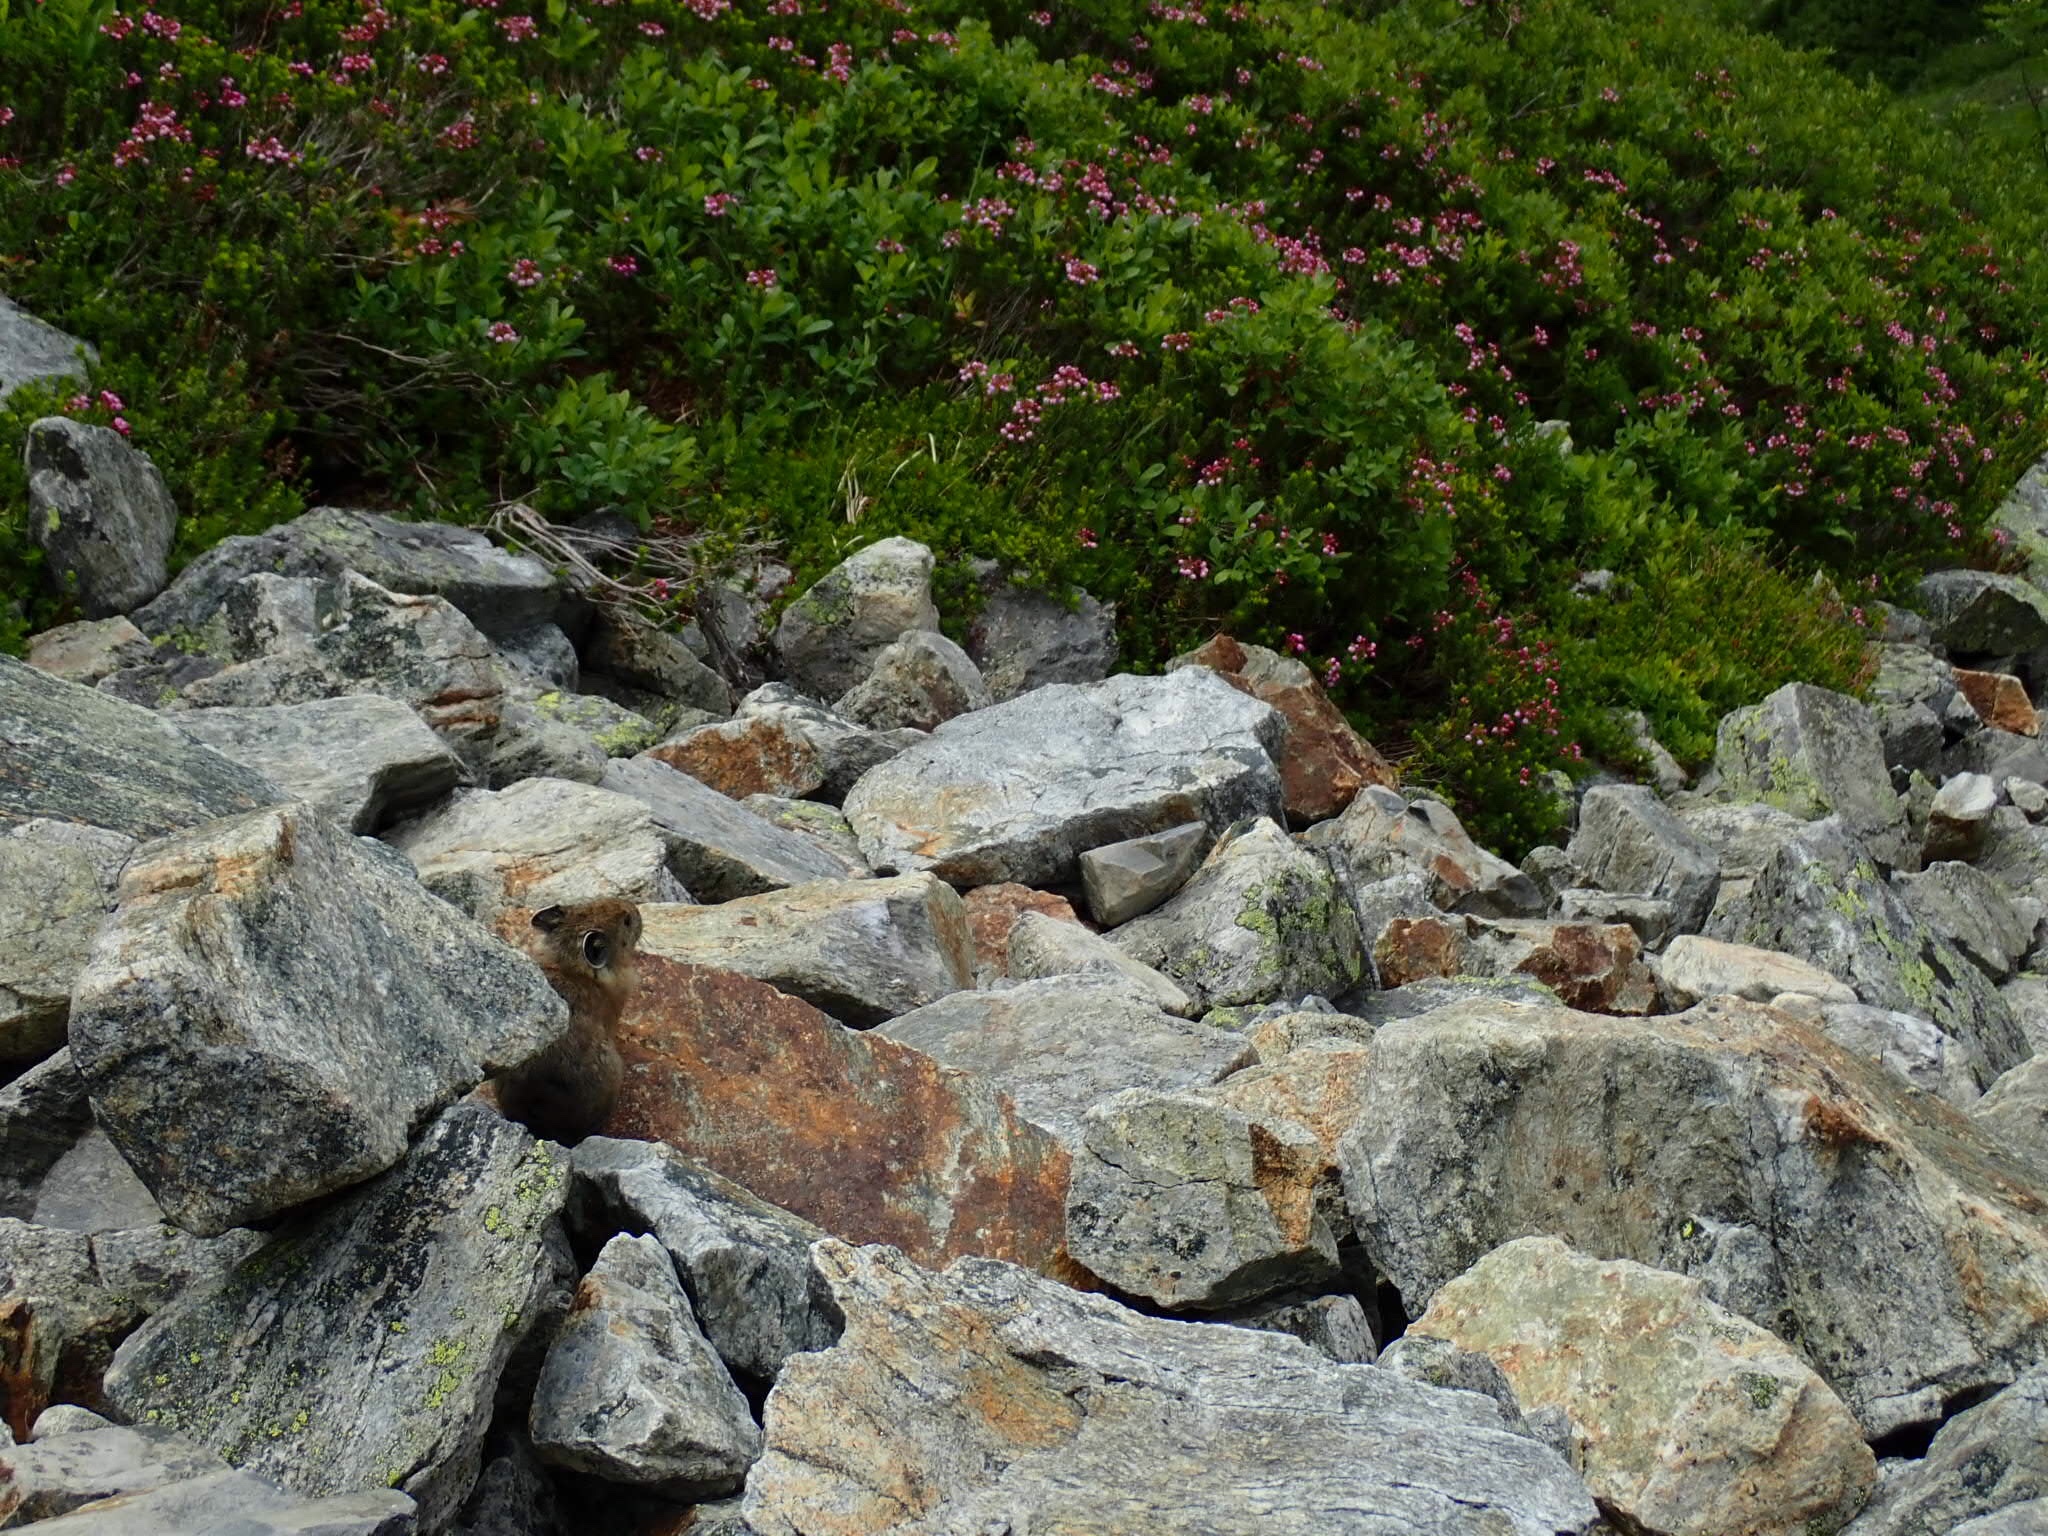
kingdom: Animalia
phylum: Chordata
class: Mammalia
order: Lagomorpha
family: Ochotonidae
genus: Ochotona
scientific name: Ochotona princeps
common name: American pika
